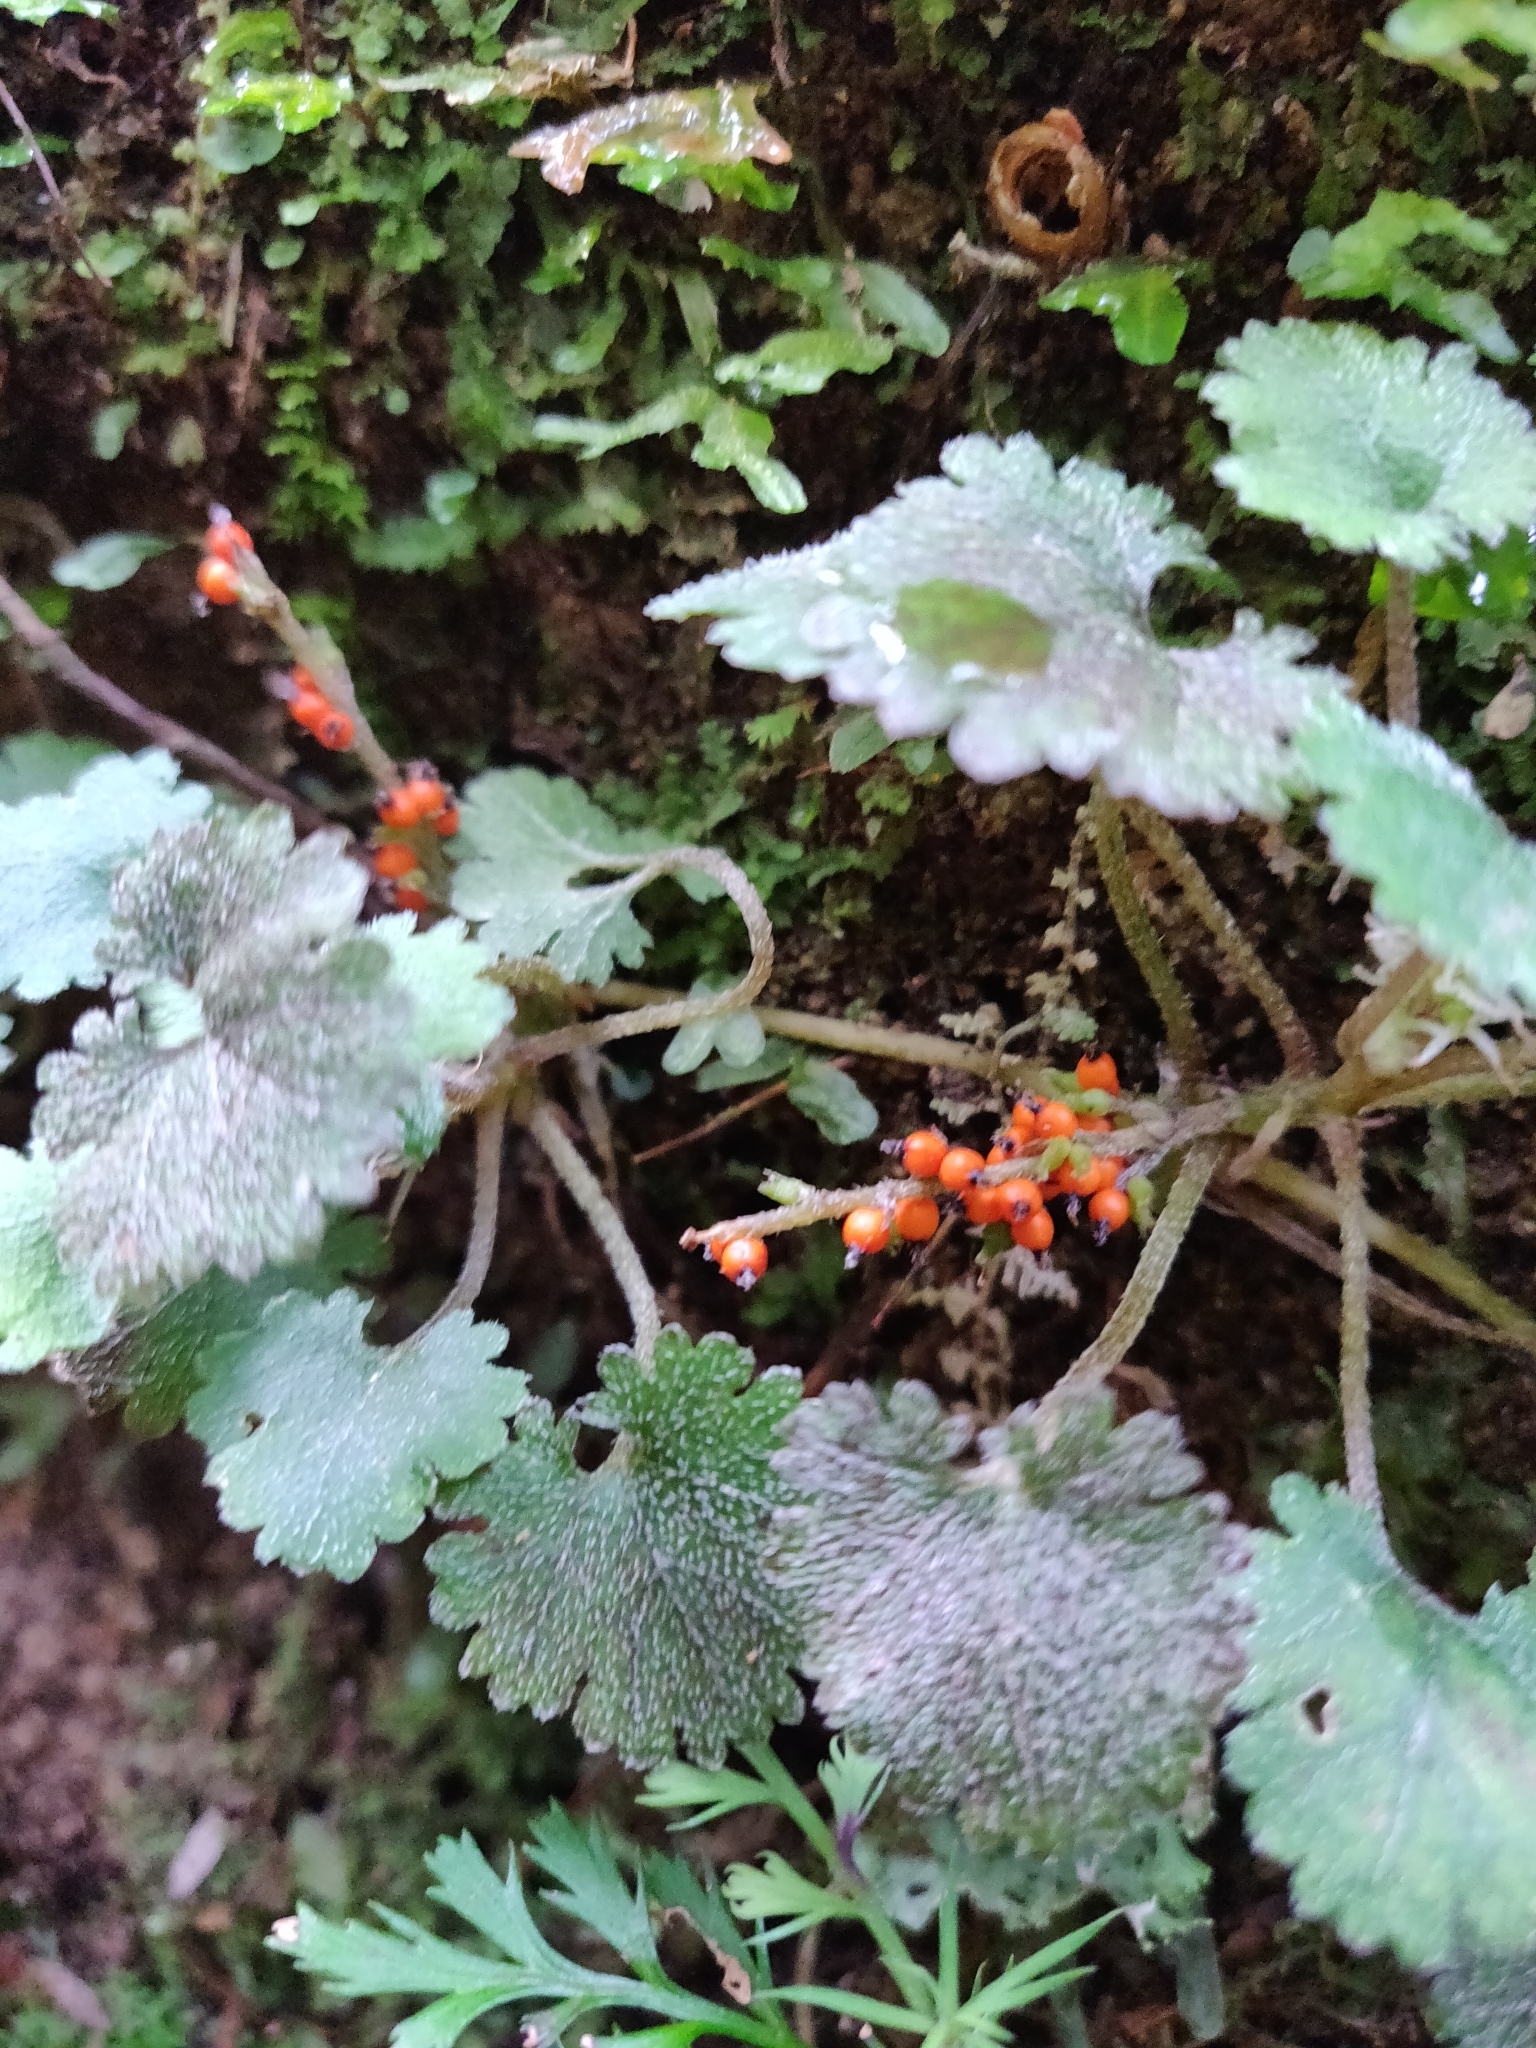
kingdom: Plantae
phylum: Tracheophyta
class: Magnoliopsida
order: Gunnerales
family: Gunneraceae
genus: Gunnera
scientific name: Gunnera monoica
